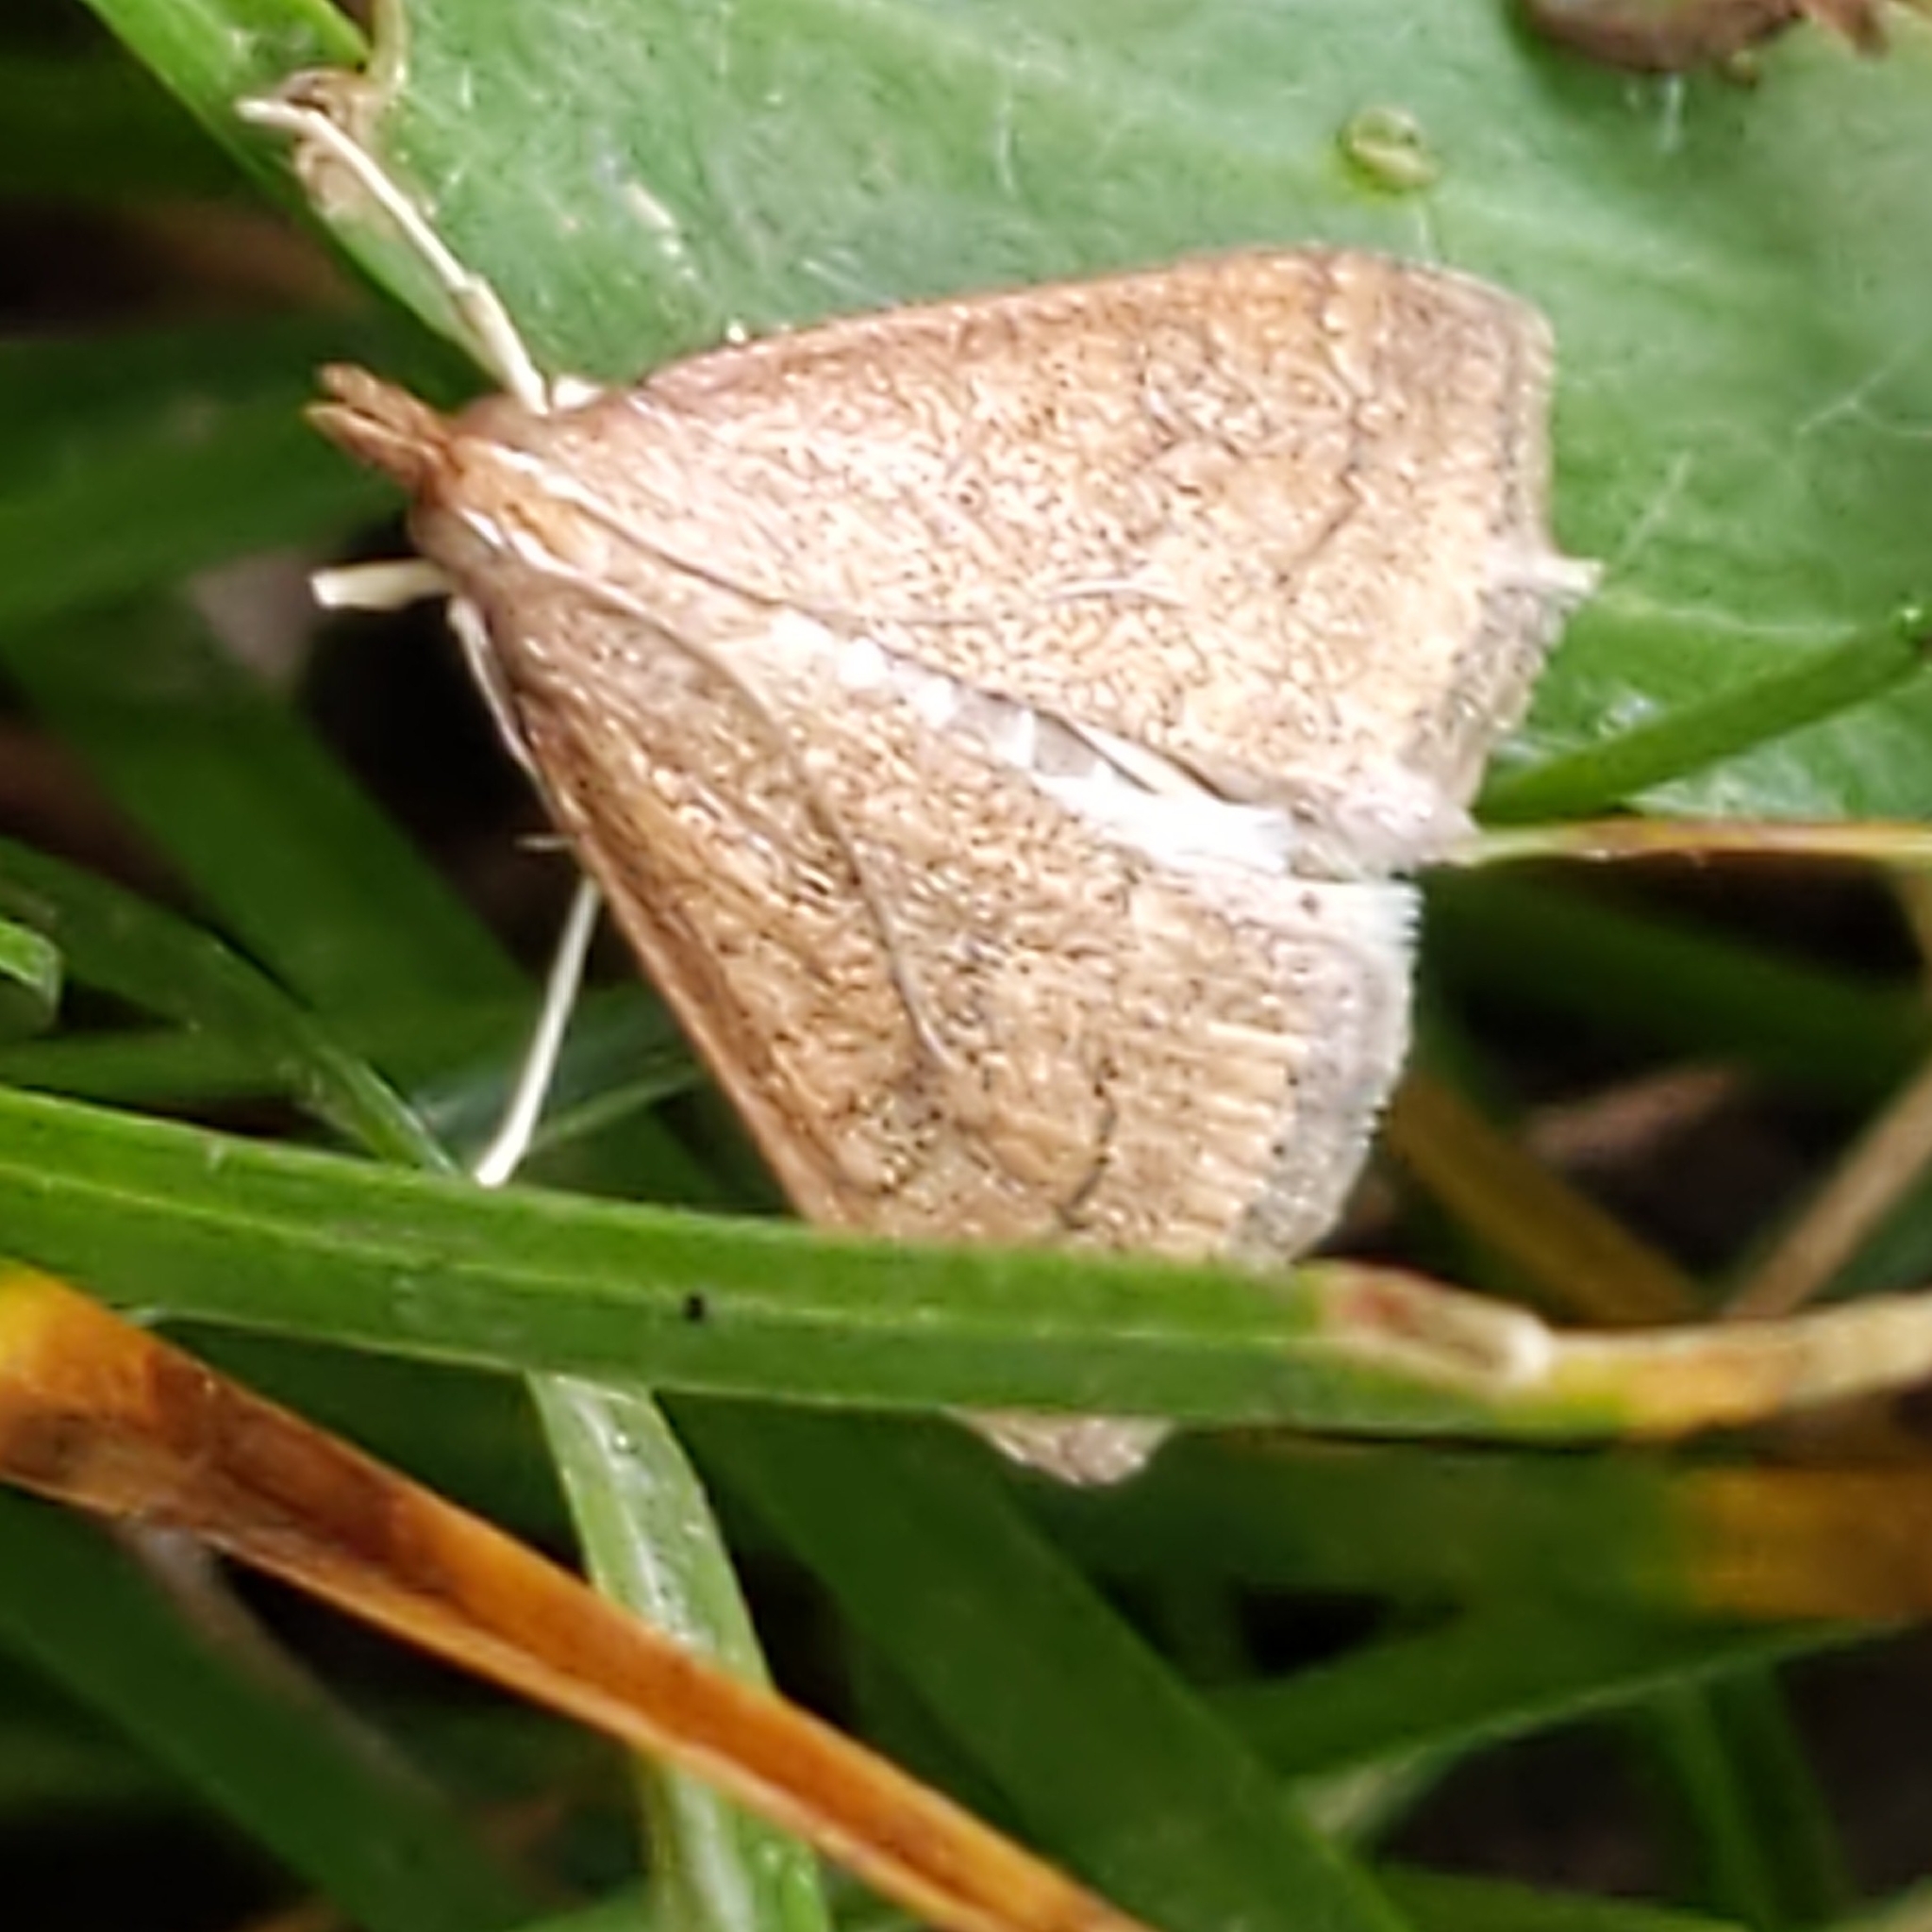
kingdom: Animalia
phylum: Arthropoda
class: Insecta
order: Lepidoptera
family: Crambidae
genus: Udea
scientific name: Udea rubigalis
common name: Celery leaftier moth
